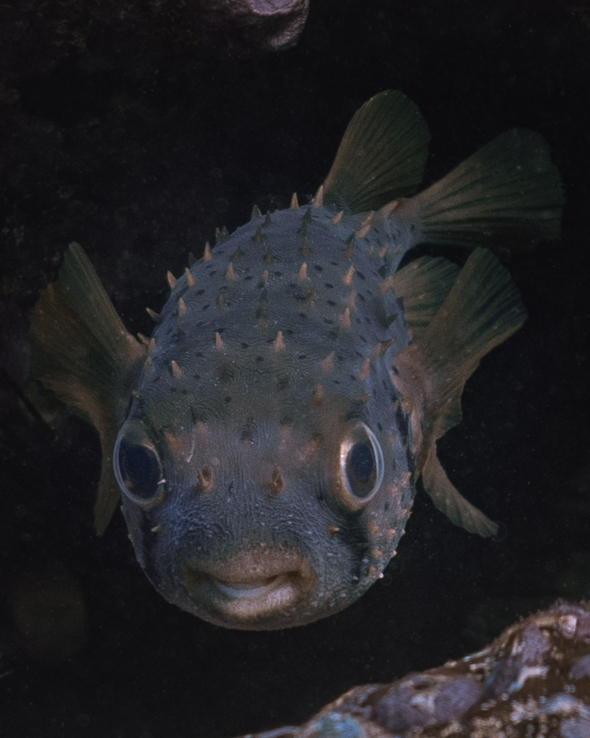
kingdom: Animalia
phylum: Chordata
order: Tetraodontiformes
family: Diodontidae
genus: Dicotylichthys
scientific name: Dicotylichthys punctulatus
